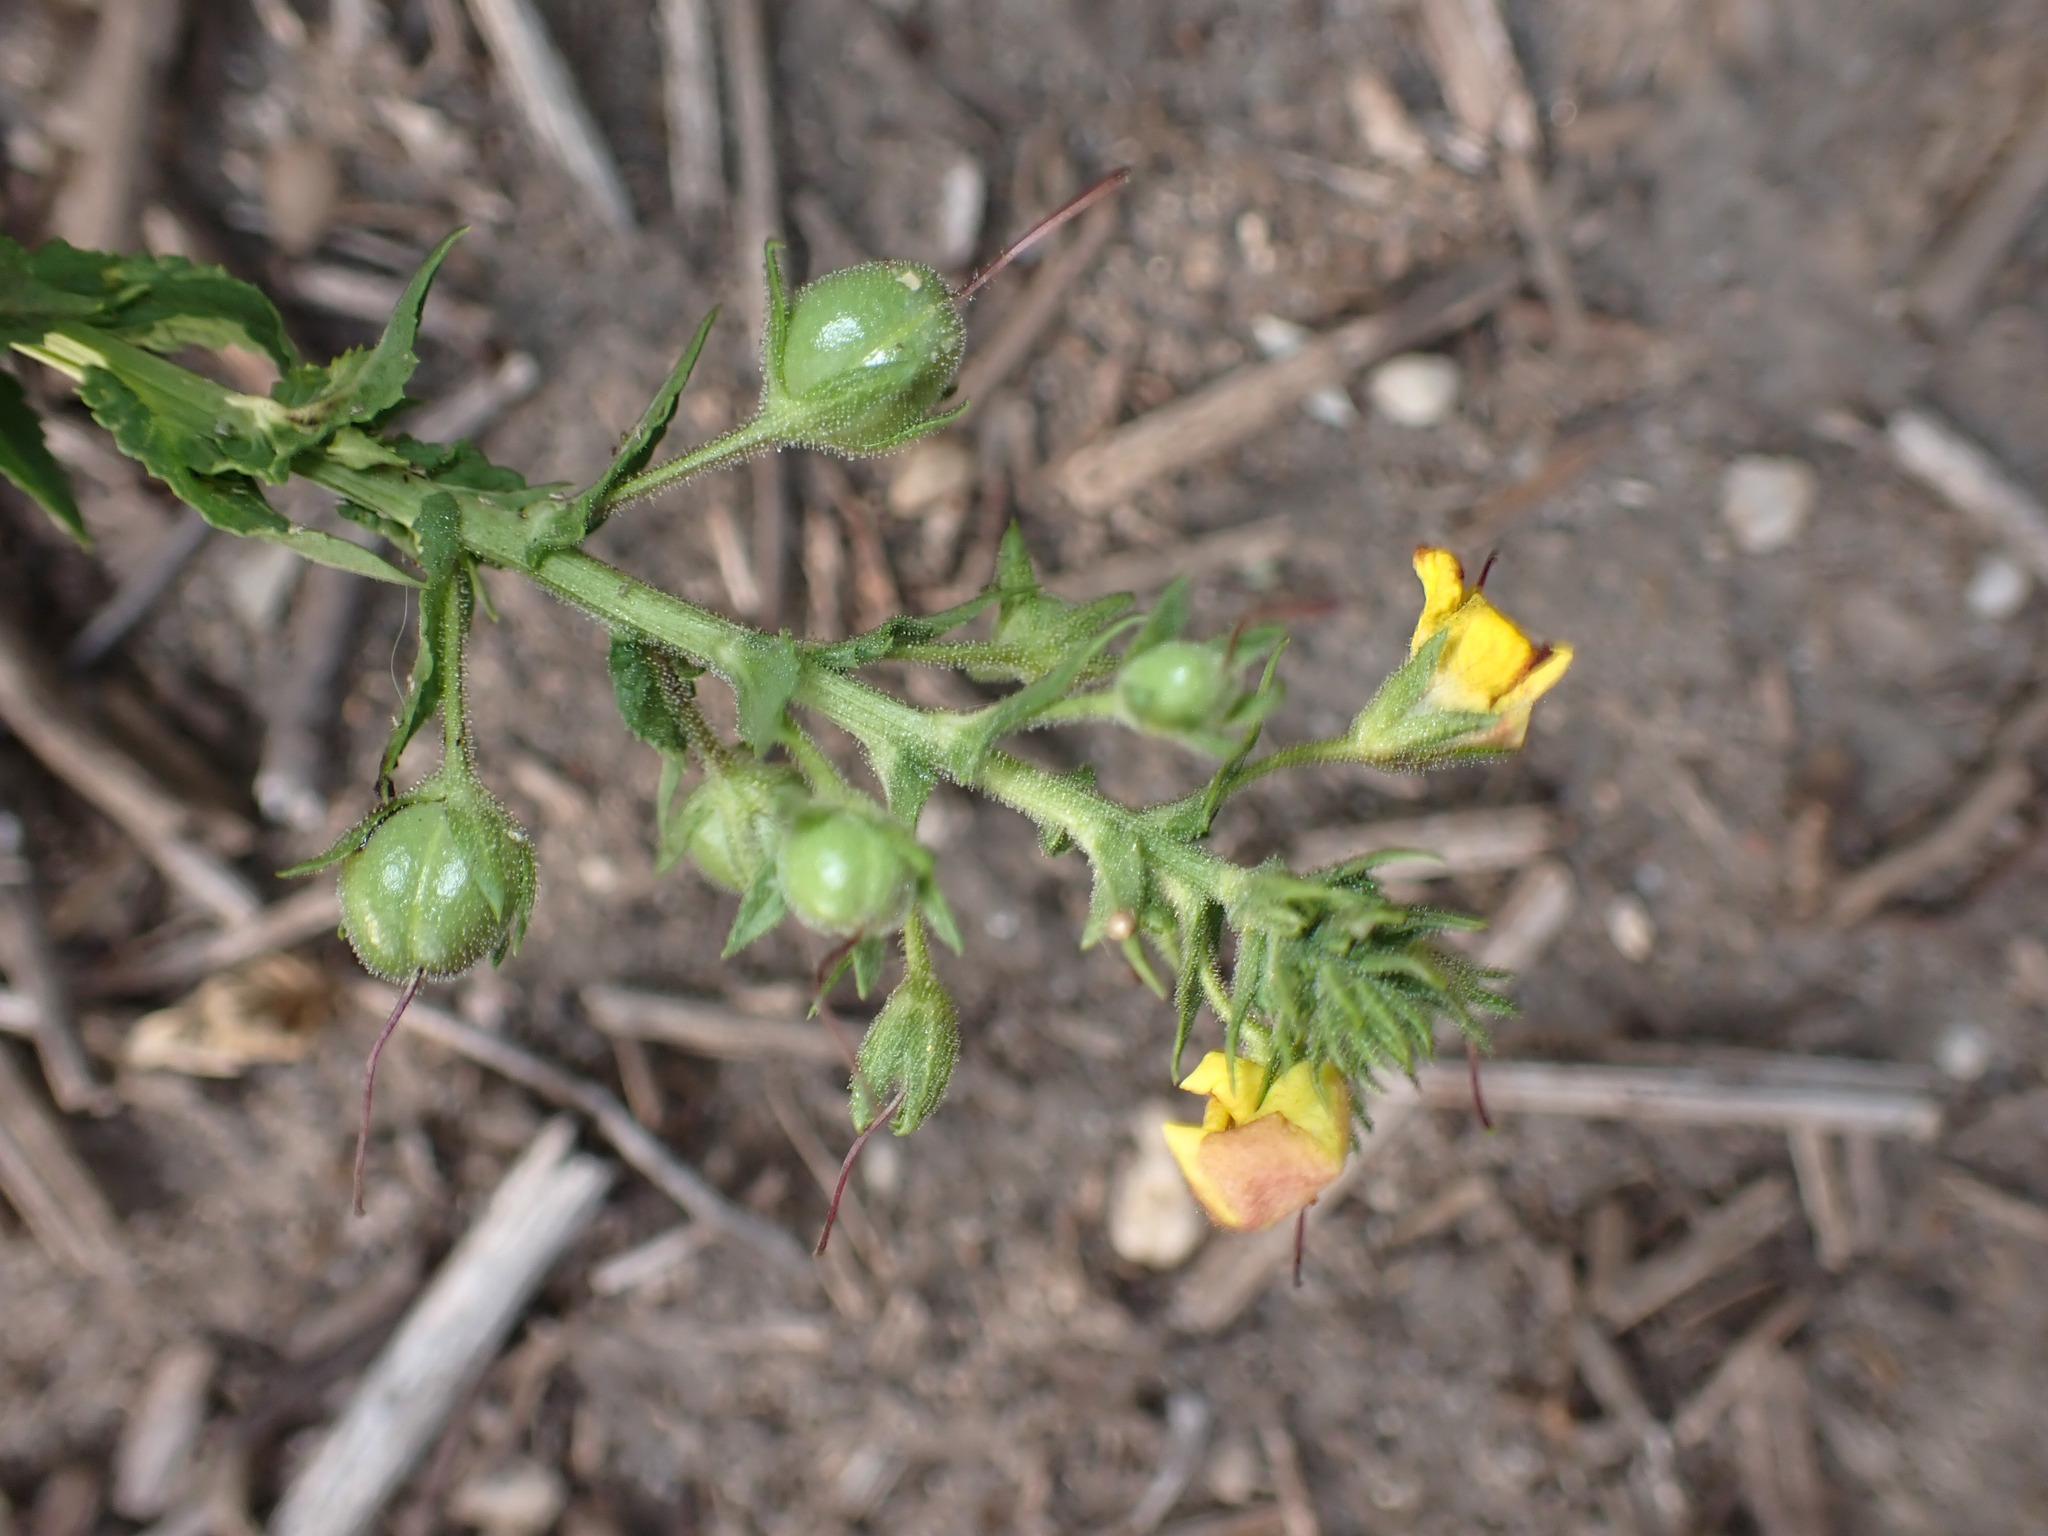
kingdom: Plantae
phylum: Tracheophyta
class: Magnoliopsida
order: Lamiales
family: Scrophulariaceae
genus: Verbascum
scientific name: Verbascum blattaria
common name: Moth mullein
